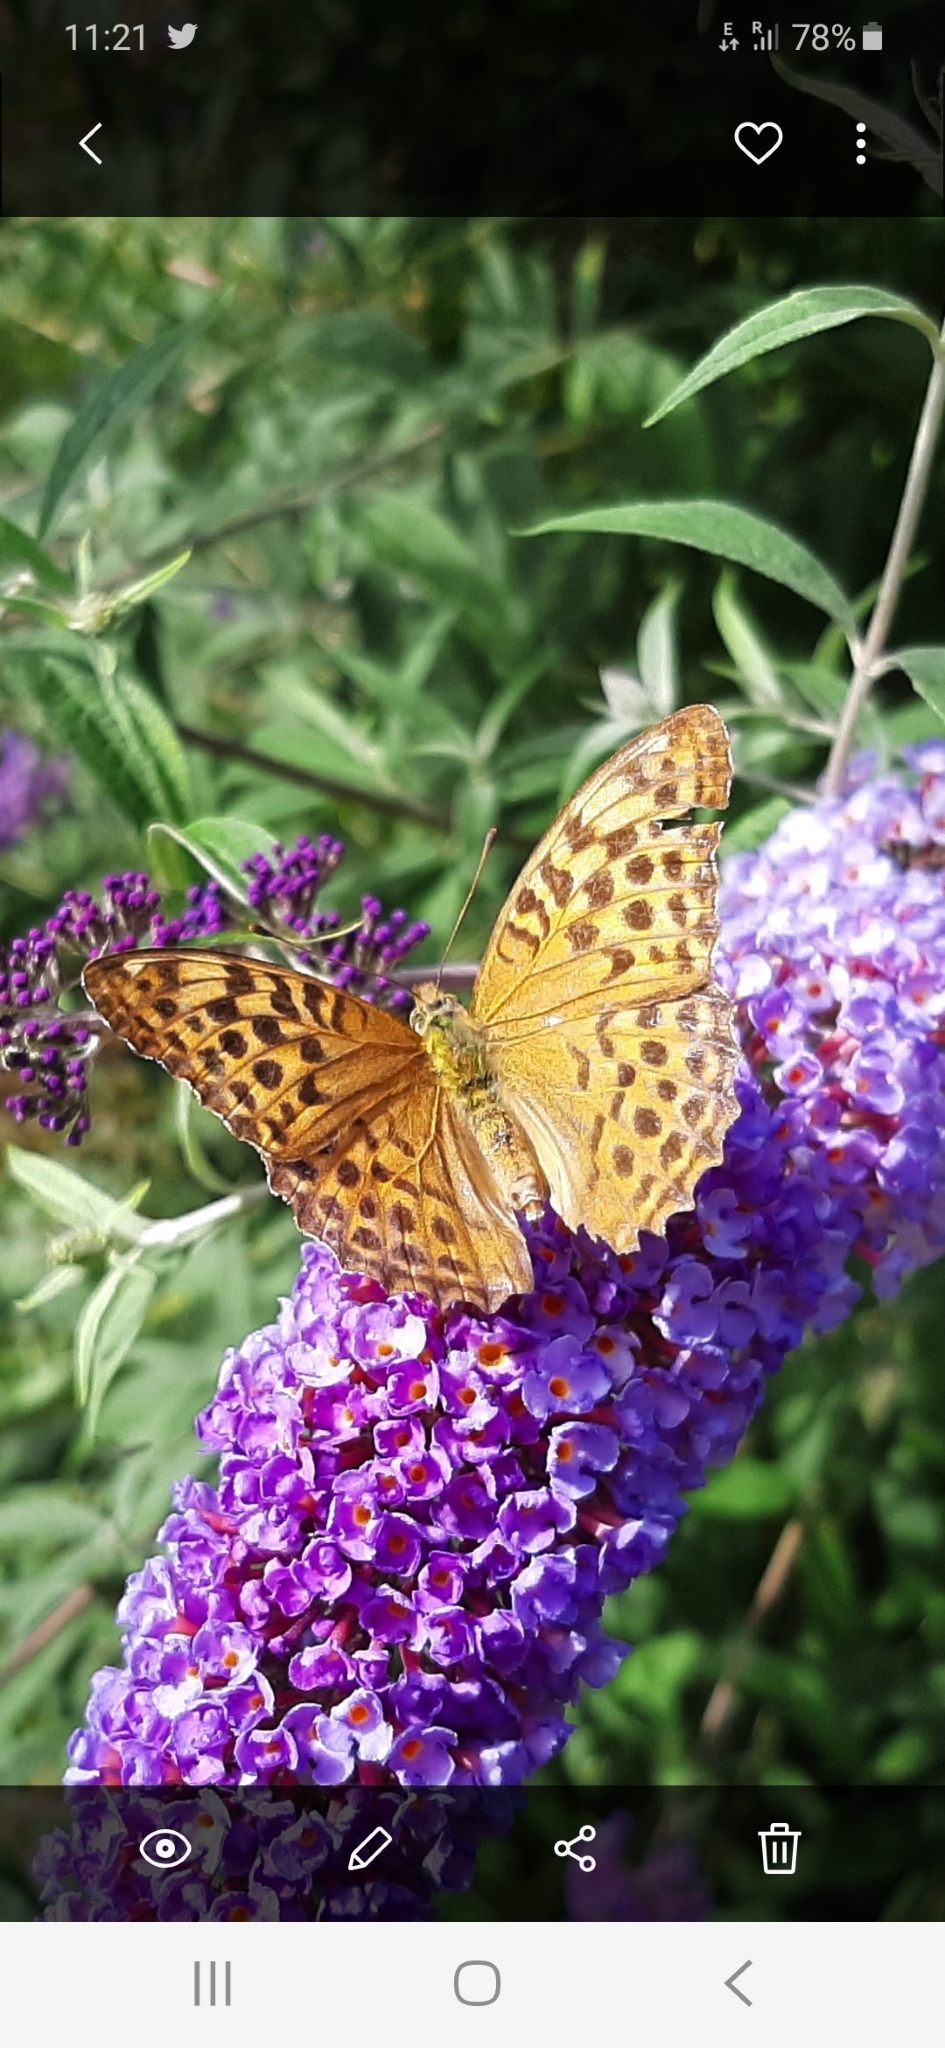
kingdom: Animalia
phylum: Arthropoda
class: Insecta
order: Lepidoptera
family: Nymphalidae
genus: Argynnis
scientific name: Argynnis paphia
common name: Silver-washed fritillary
